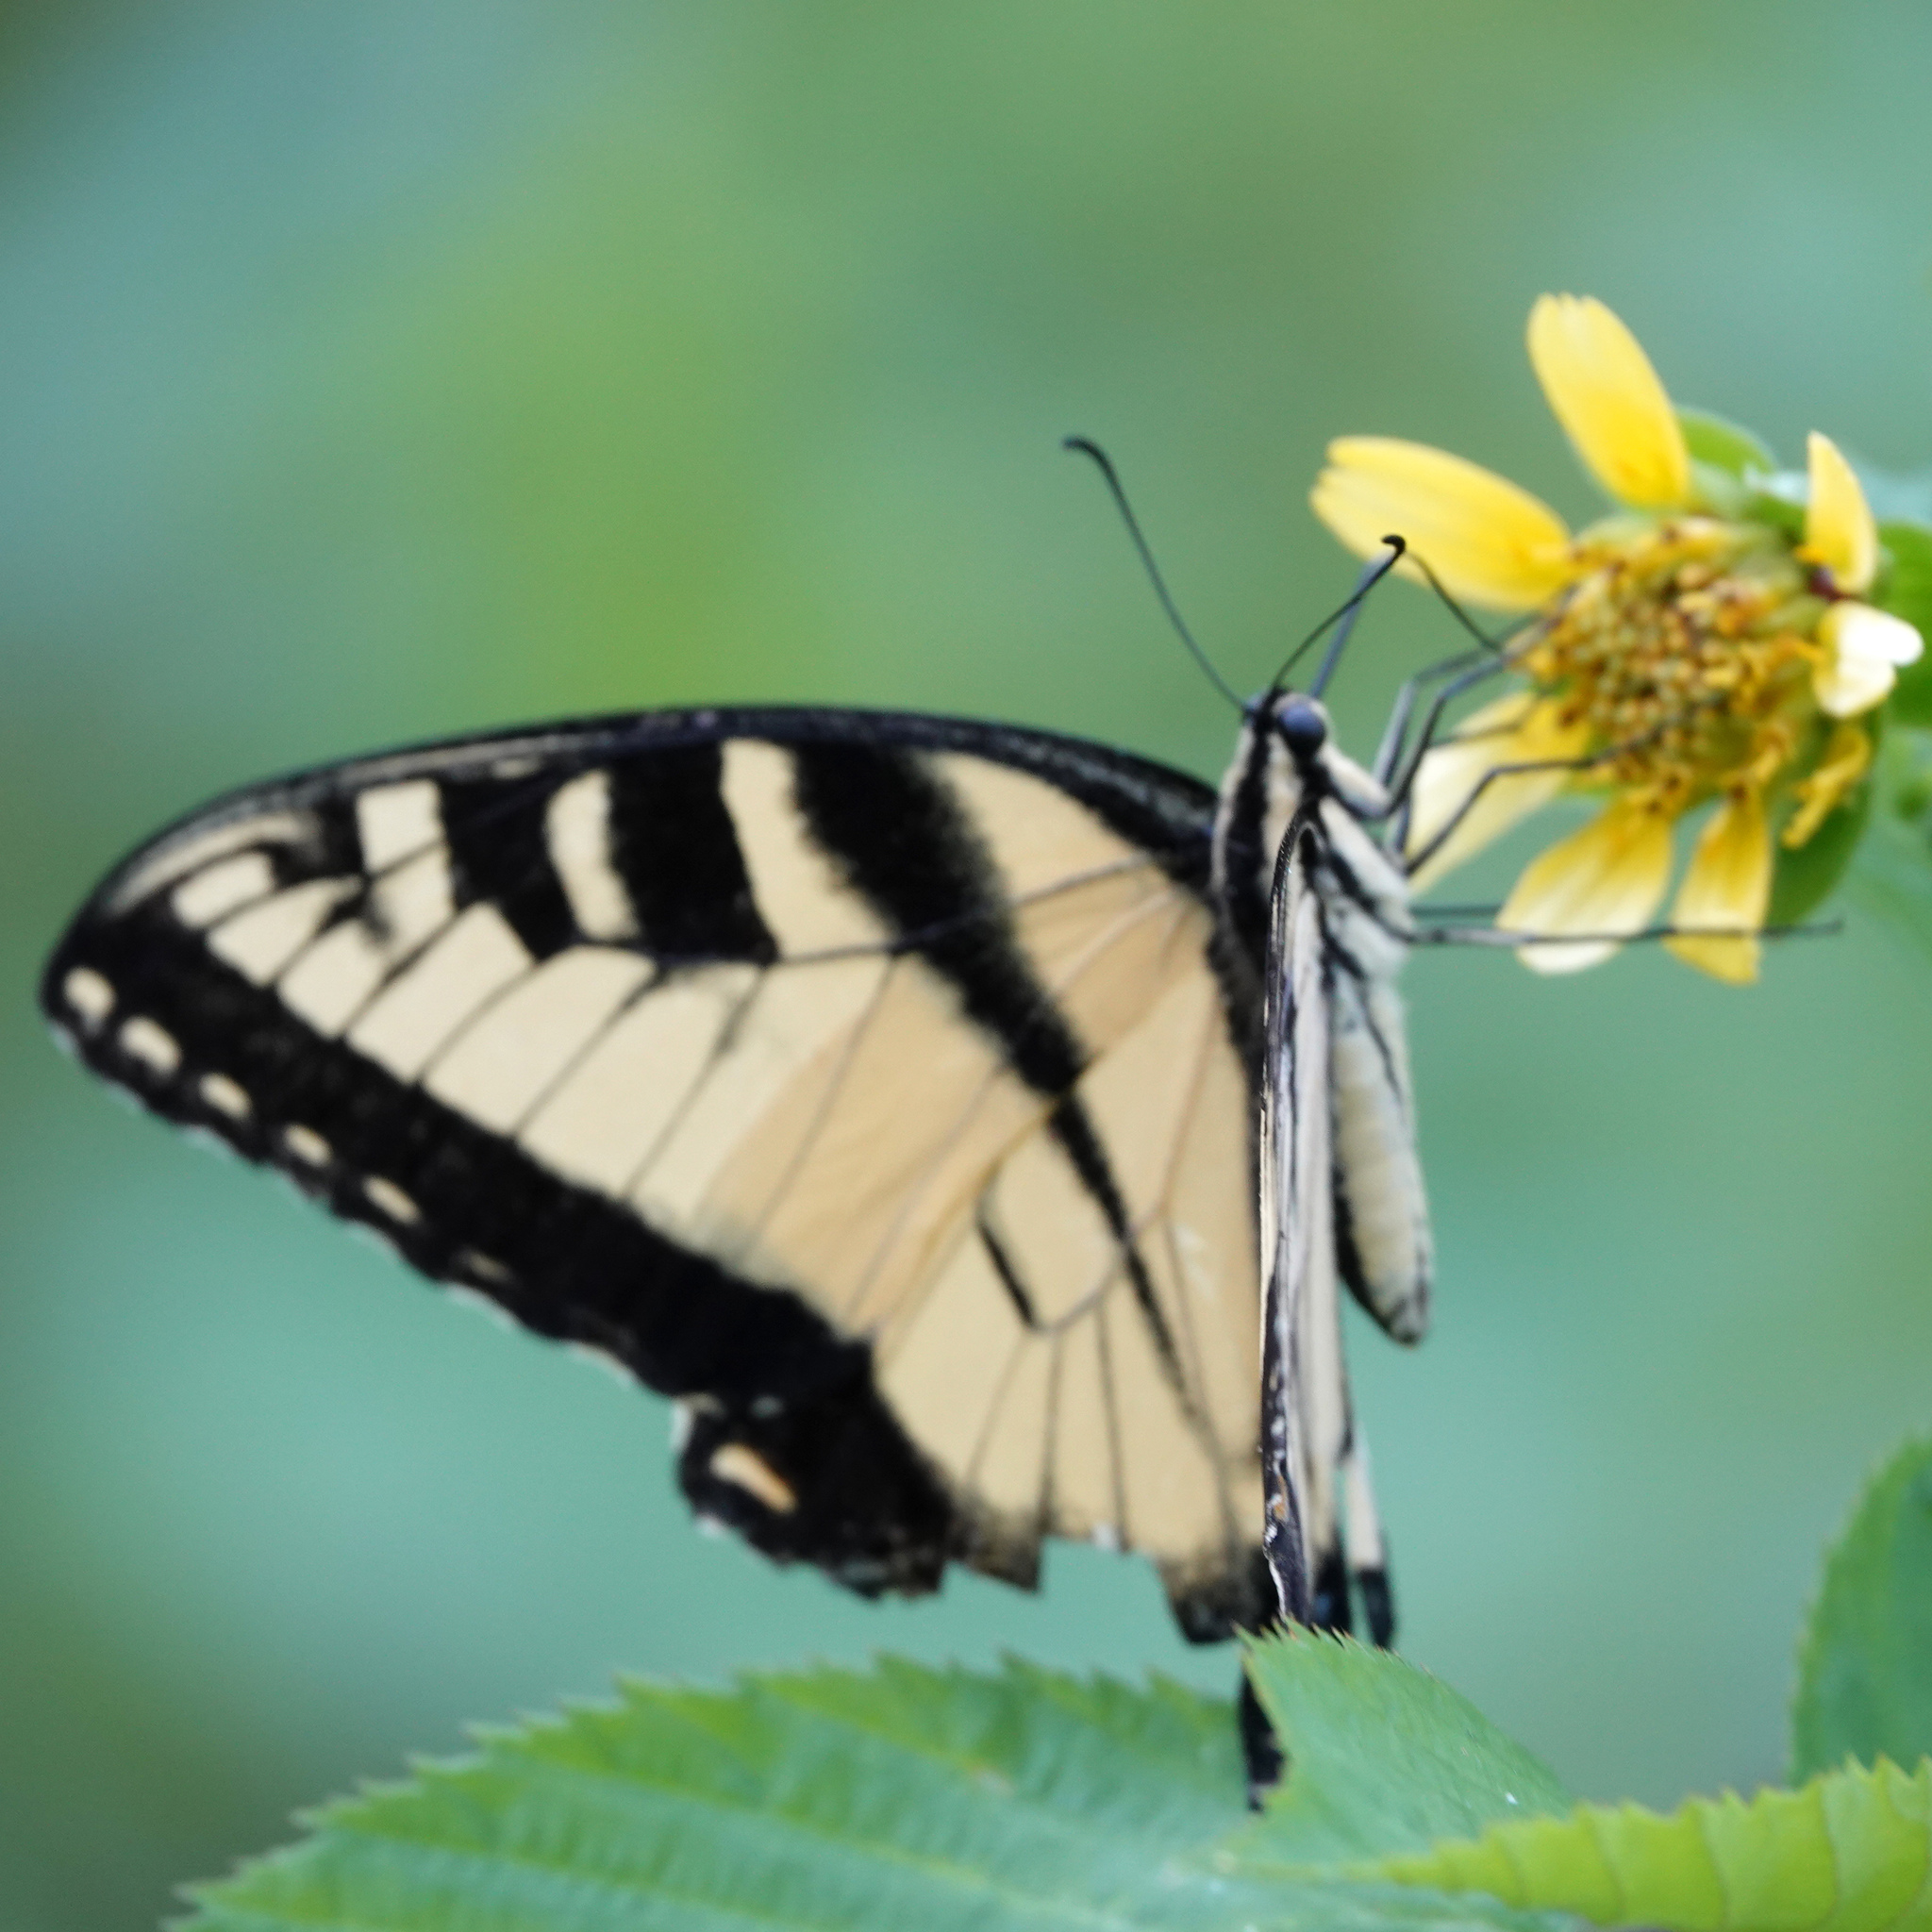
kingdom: Animalia
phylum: Arthropoda
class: Insecta
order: Lepidoptera
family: Papilionidae
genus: Papilio
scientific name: Papilio glaucus
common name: Tiger swallowtail
